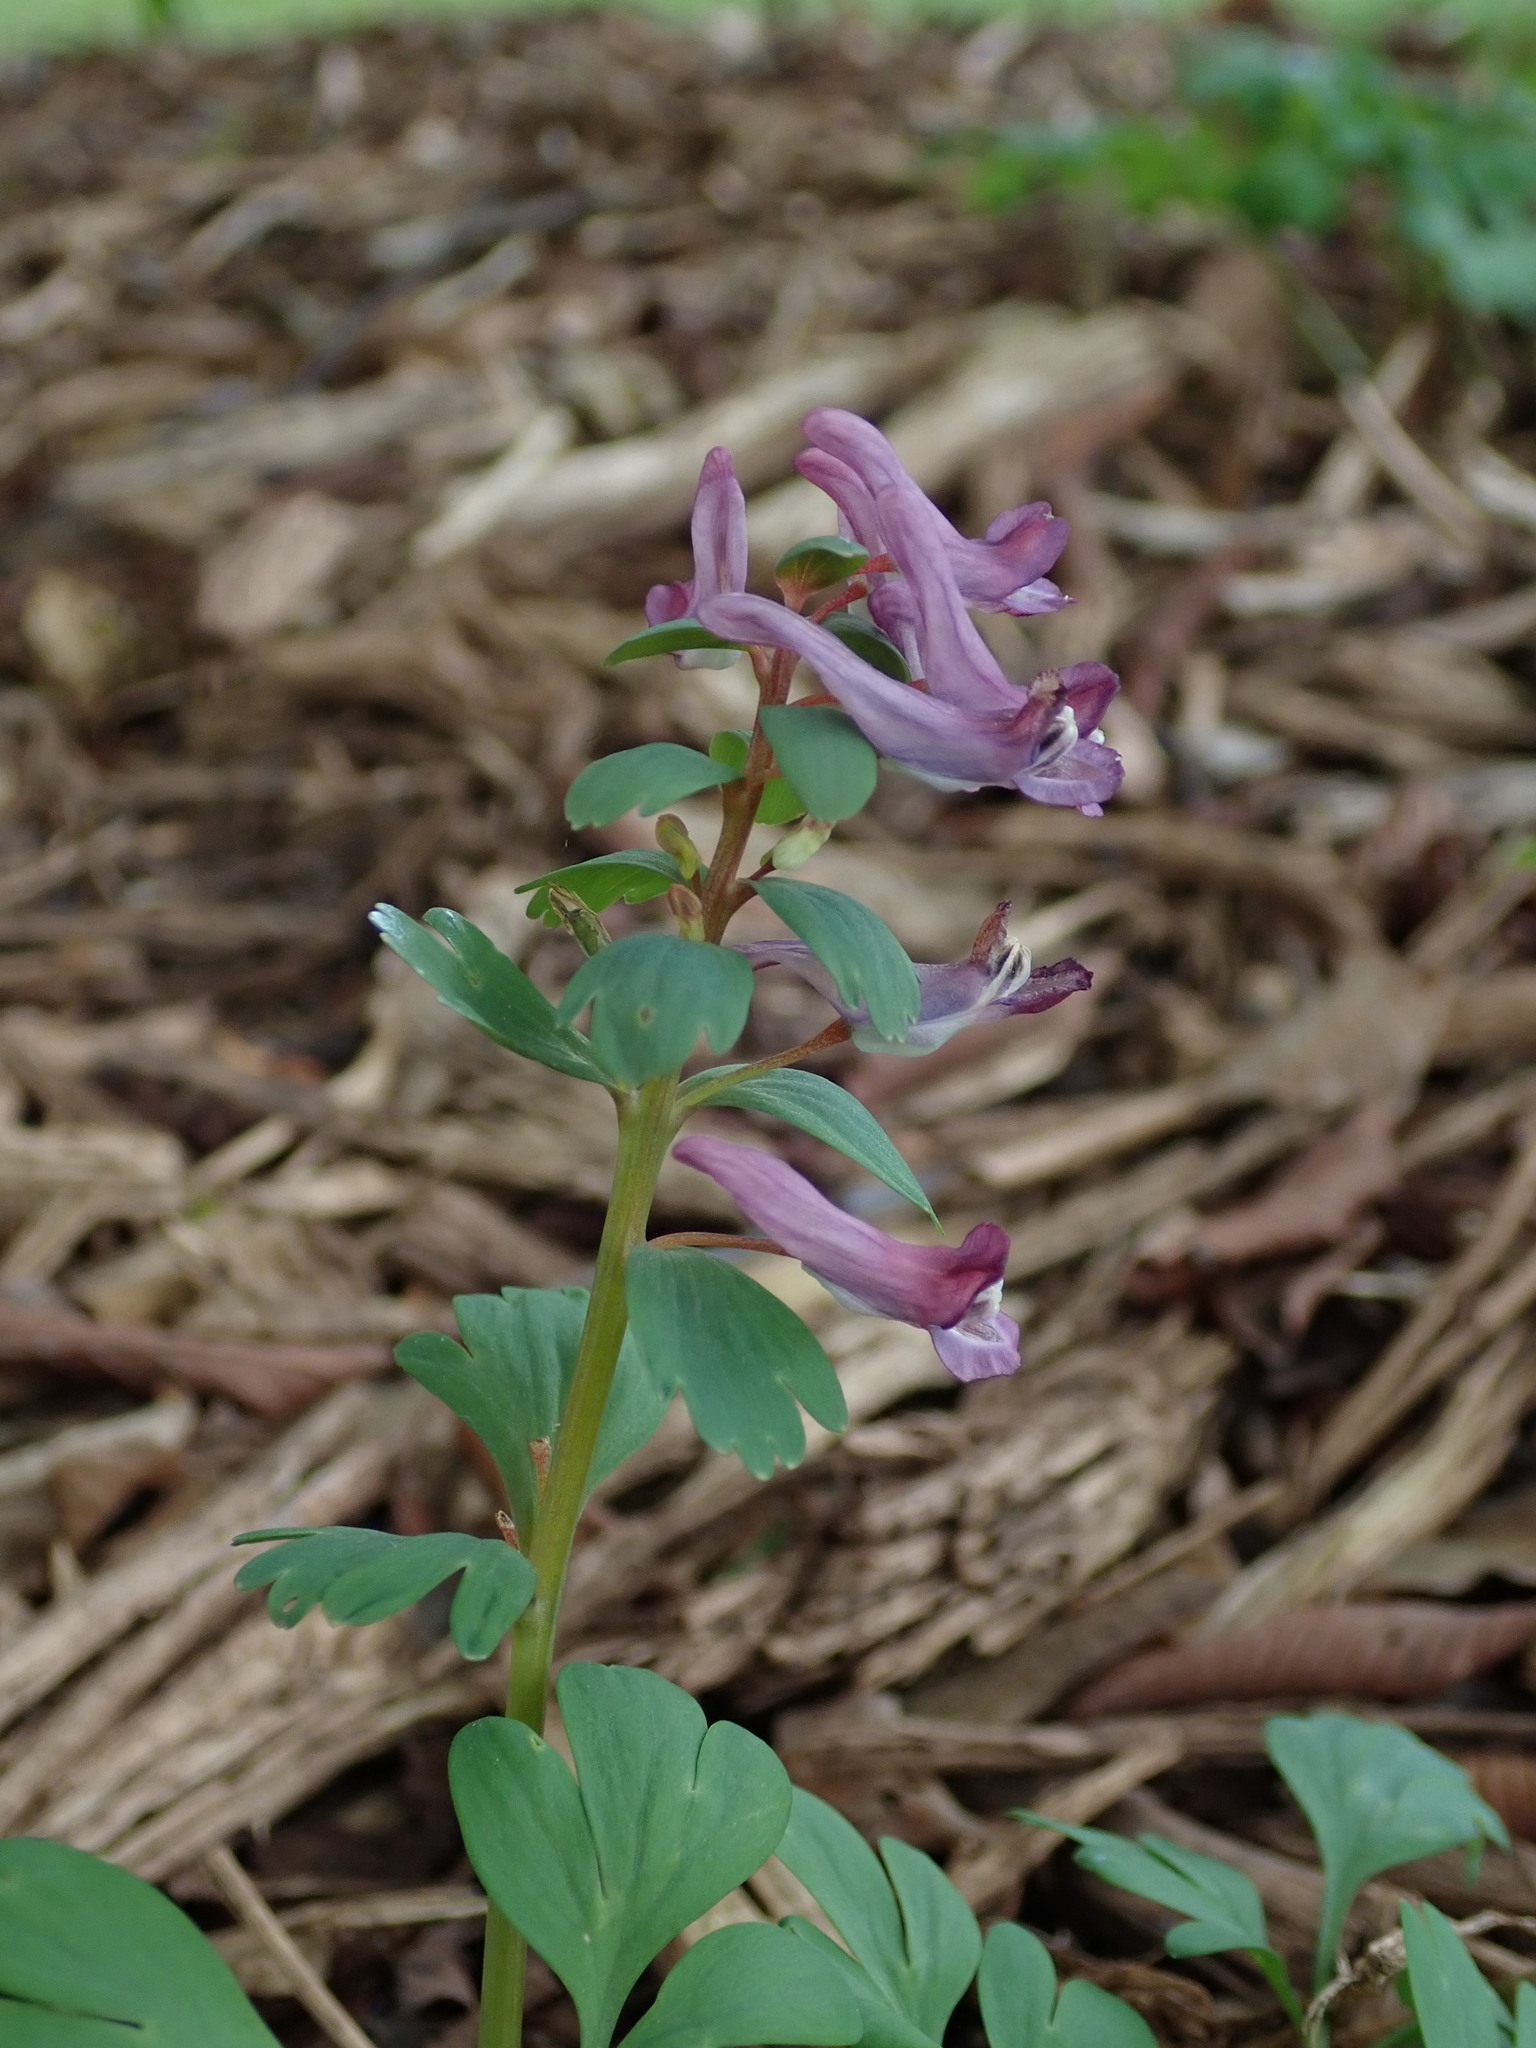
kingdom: Plantae
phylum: Tracheophyta
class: Magnoliopsida
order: Ranunculales
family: Papaveraceae
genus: Corydalis
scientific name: Corydalis solida
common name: Bird-in-a-bush
